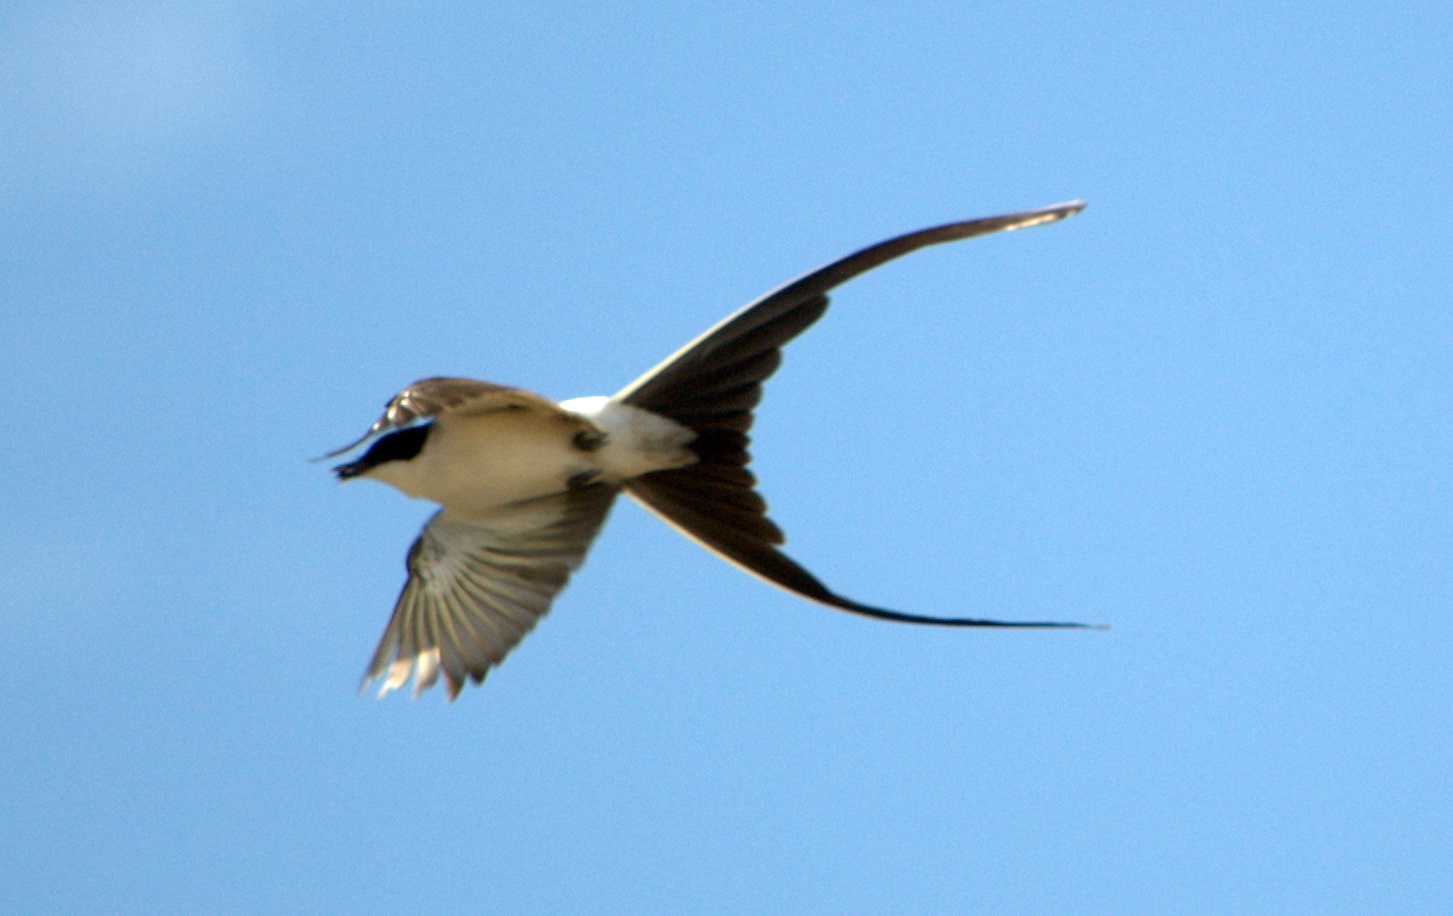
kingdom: Animalia
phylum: Chordata
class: Aves
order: Passeriformes
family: Tyrannidae
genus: Tyrannus
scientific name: Tyrannus savana
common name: Fork-tailed flycatcher
